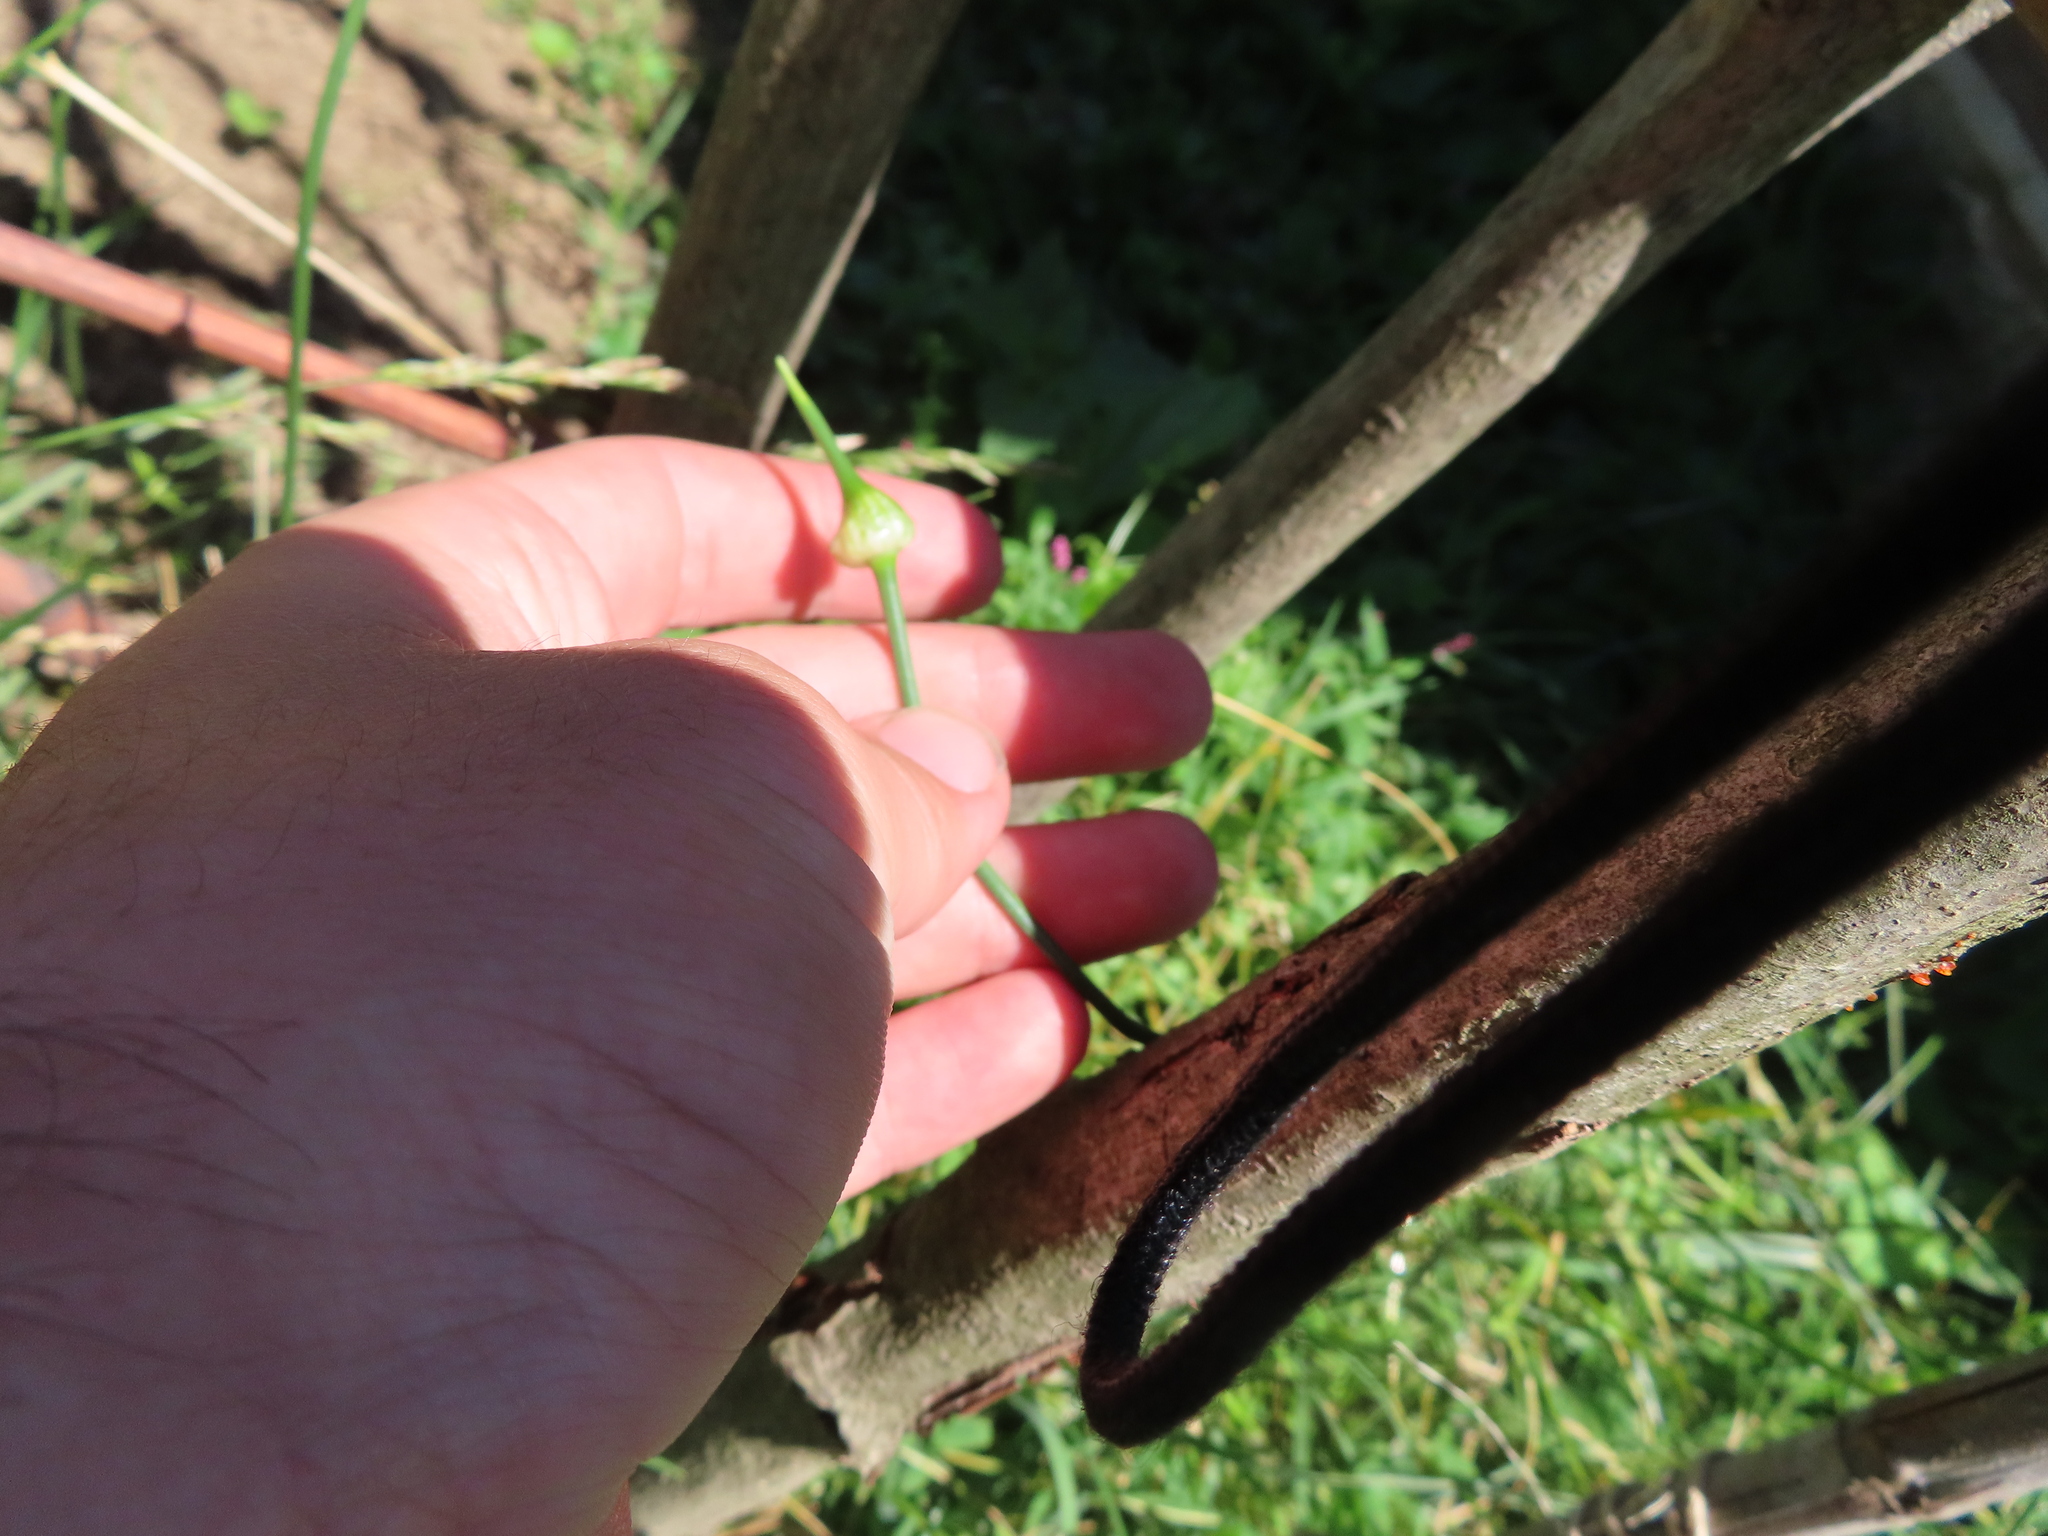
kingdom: Plantae
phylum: Tracheophyta
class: Liliopsida
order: Asparagales
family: Amaryllidaceae
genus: Allium
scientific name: Allium vineale
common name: Crow garlic
